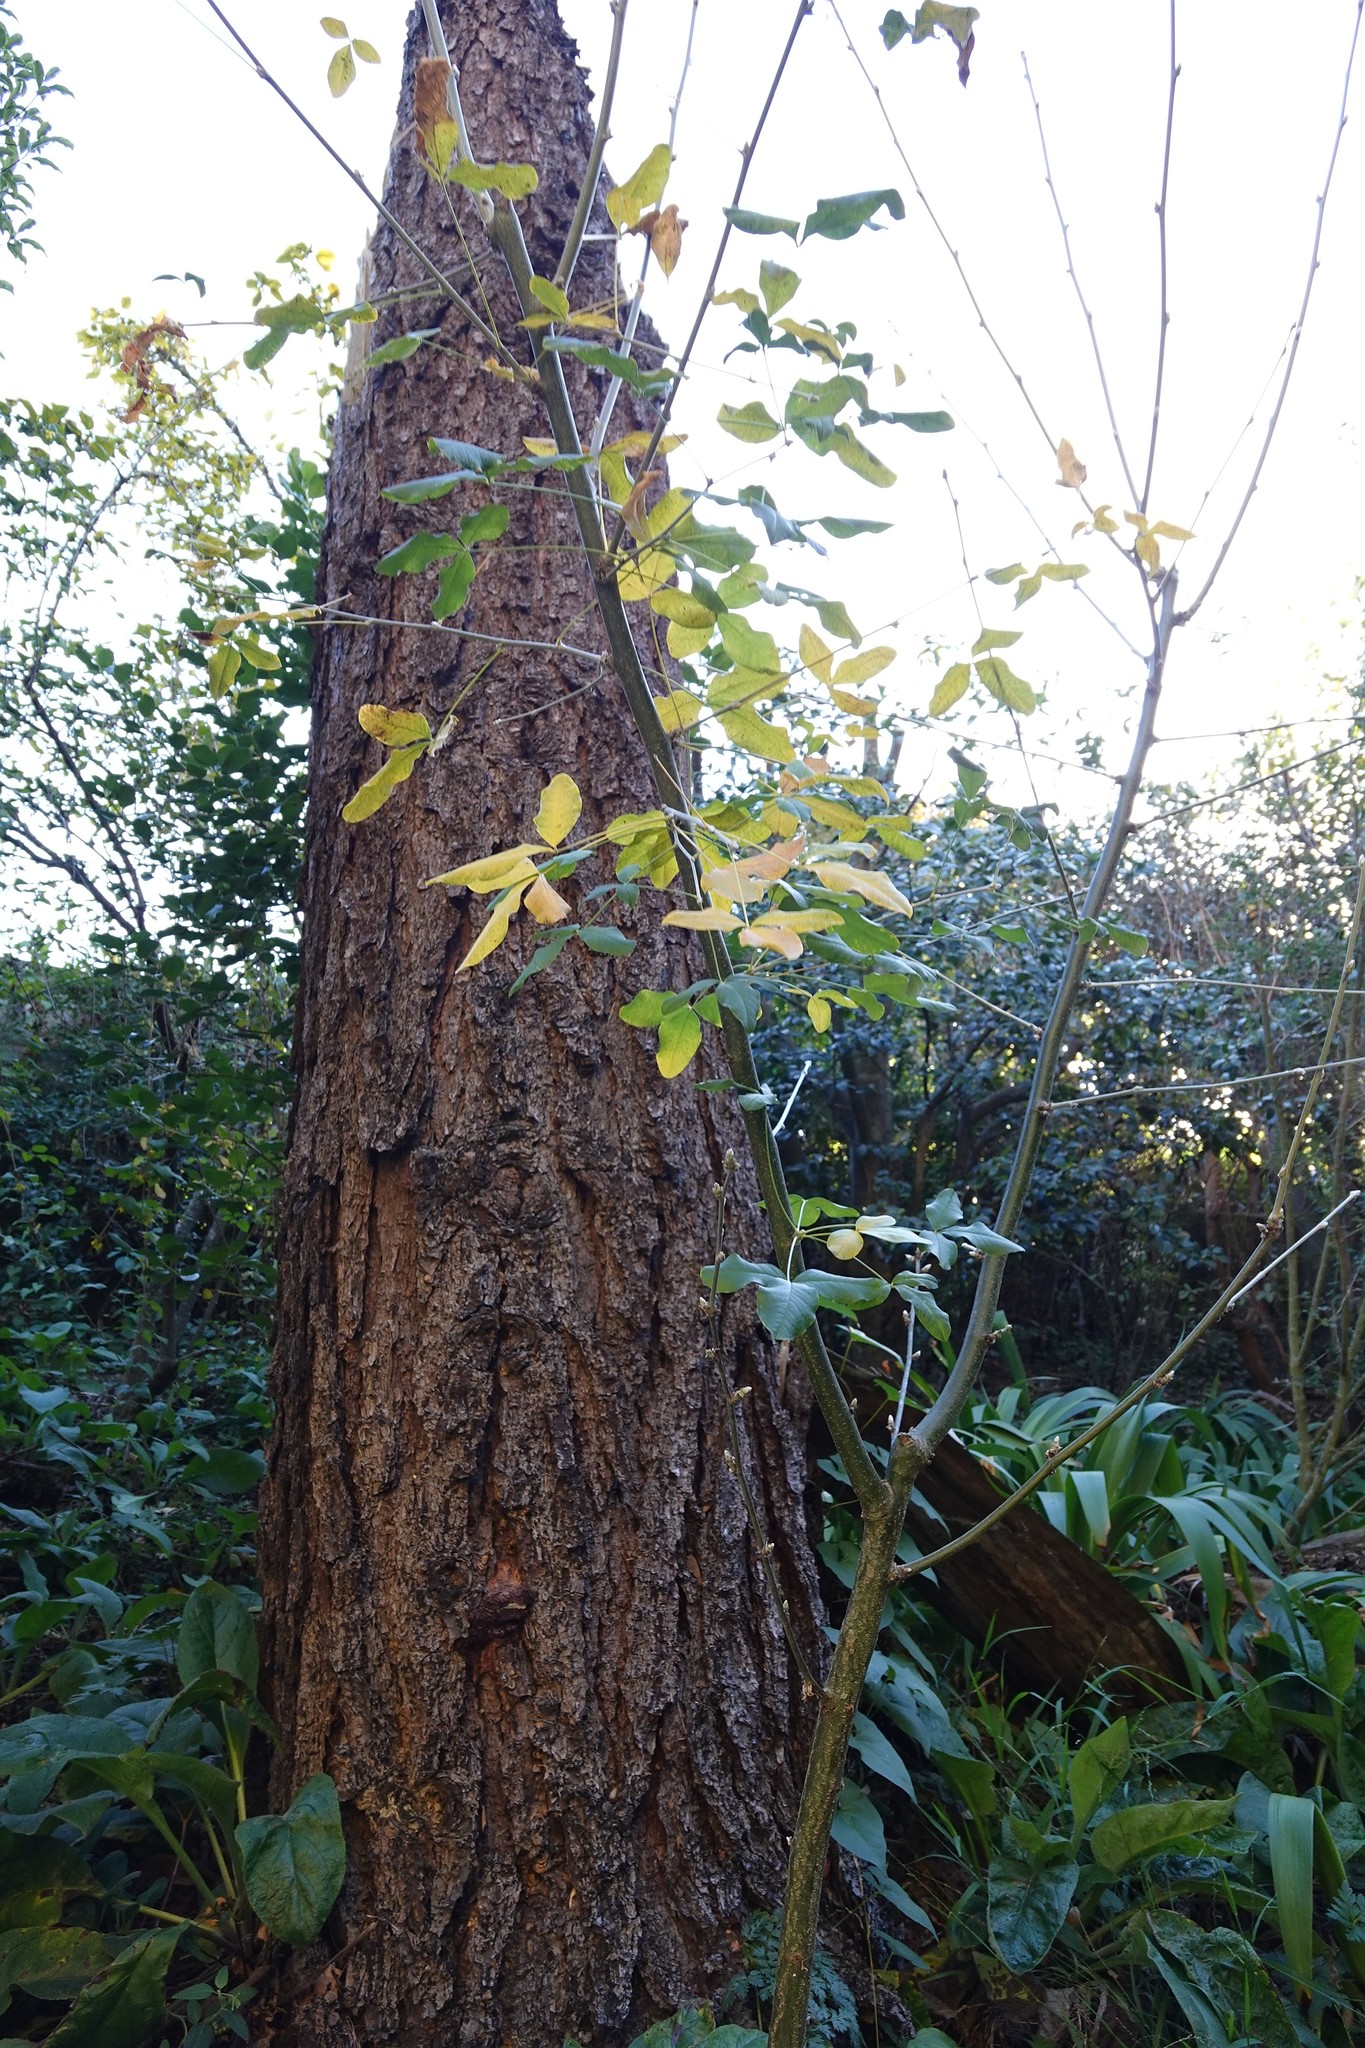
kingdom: Plantae
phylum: Tracheophyta
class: Magnoliopsida
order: Sapindales
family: Sapindaceae
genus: Acer
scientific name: Acer negundo
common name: Ashleaf maple
